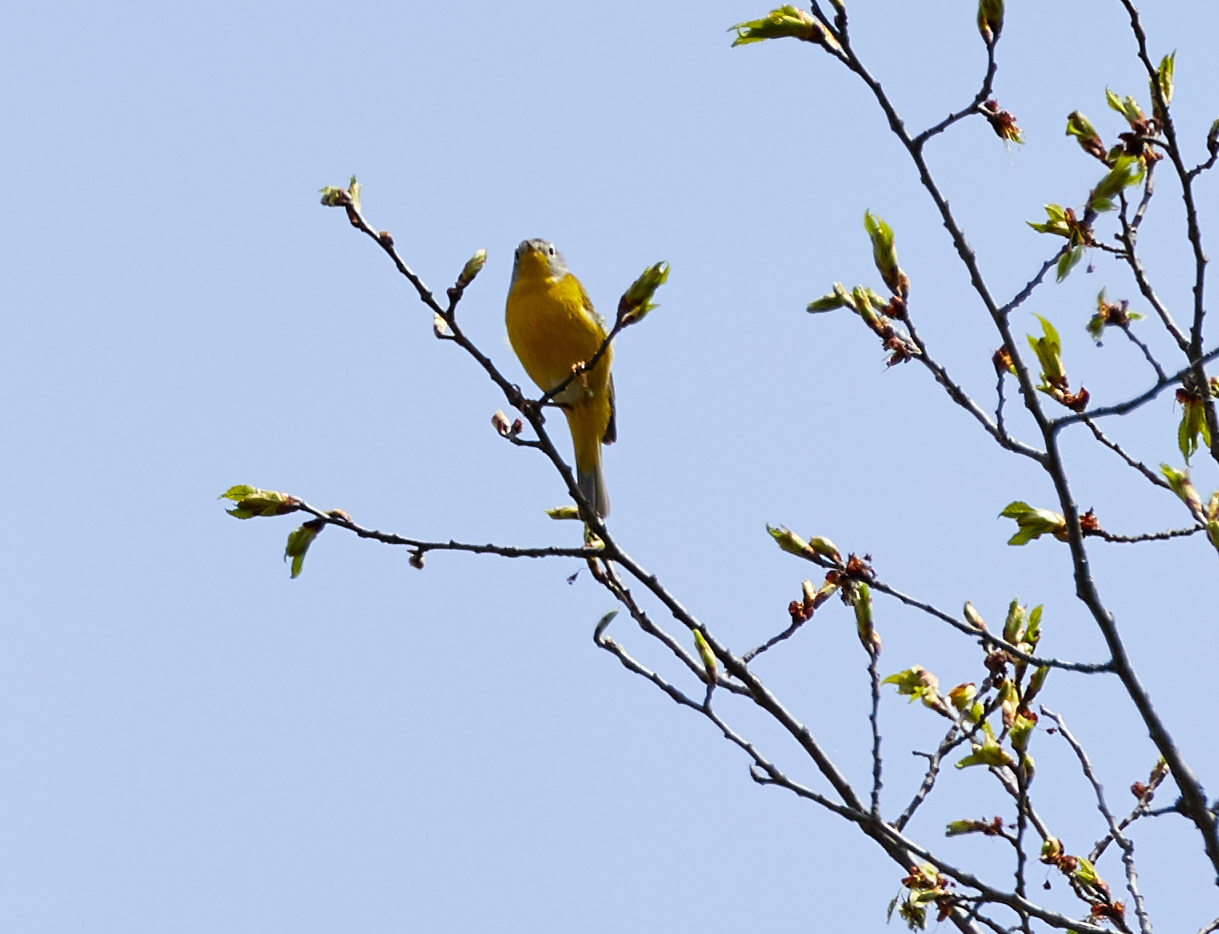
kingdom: Animalia
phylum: Chordata
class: Aves
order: Passeriformes
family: Parulidae
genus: Leiothlypis
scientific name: Leiothlypis ruficapilla
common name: Nashville warbler
